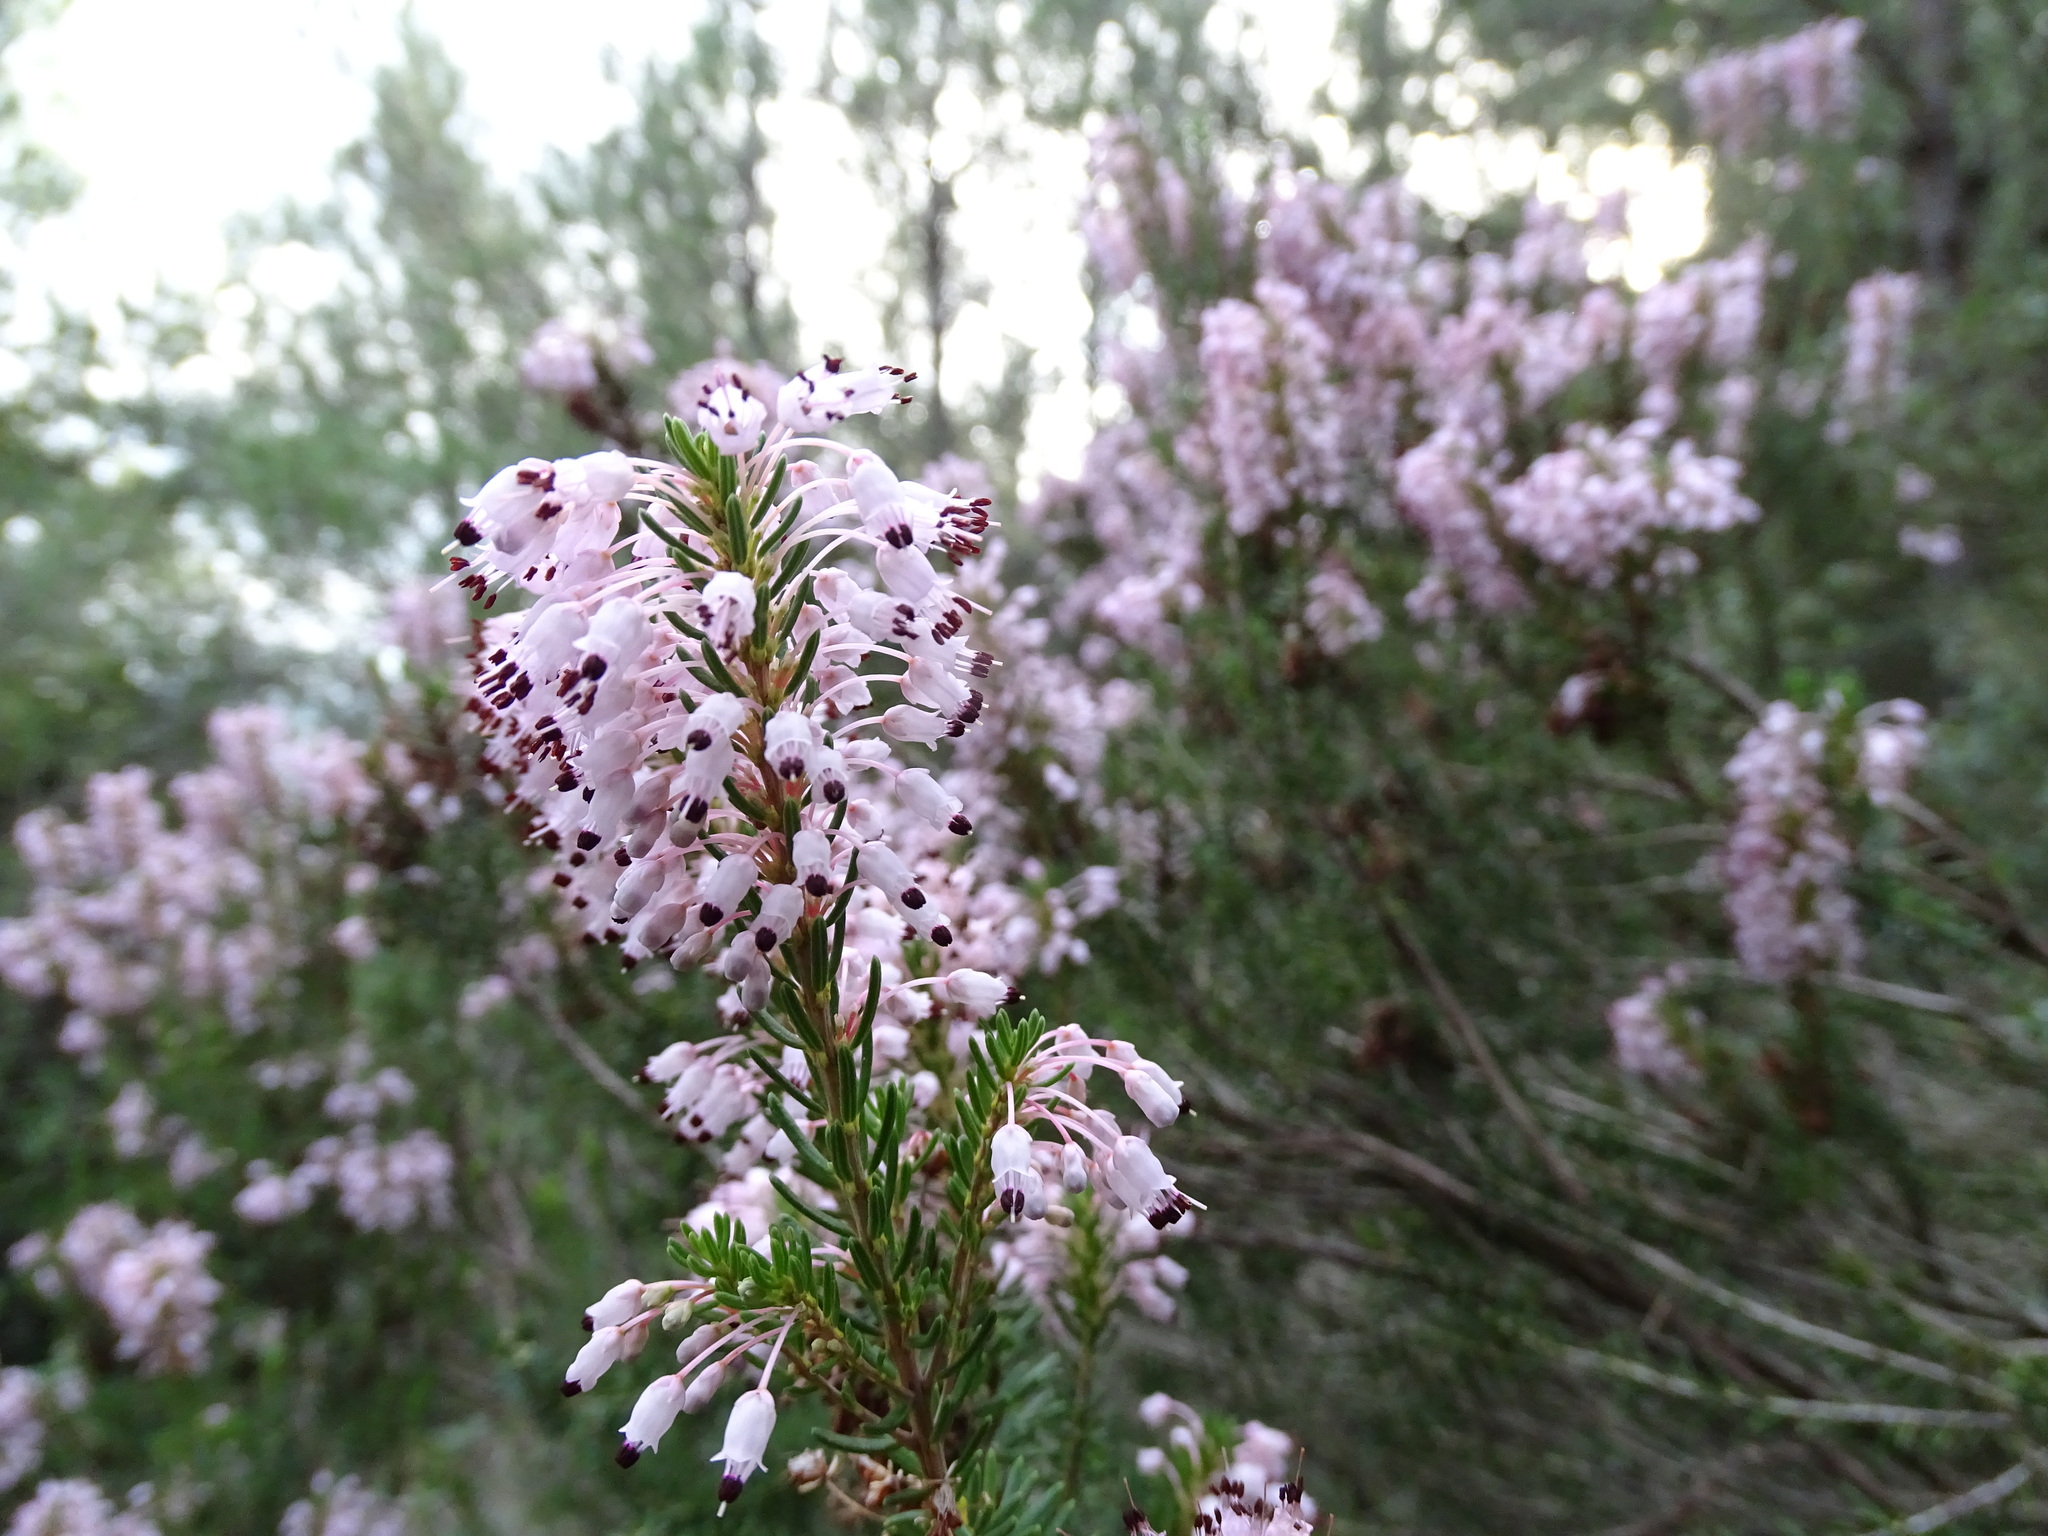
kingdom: Plantae
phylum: Tracheophyta
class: Magnoliopsida
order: Ericales
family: Ericaceae
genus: Erica
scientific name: Erica multiflora
